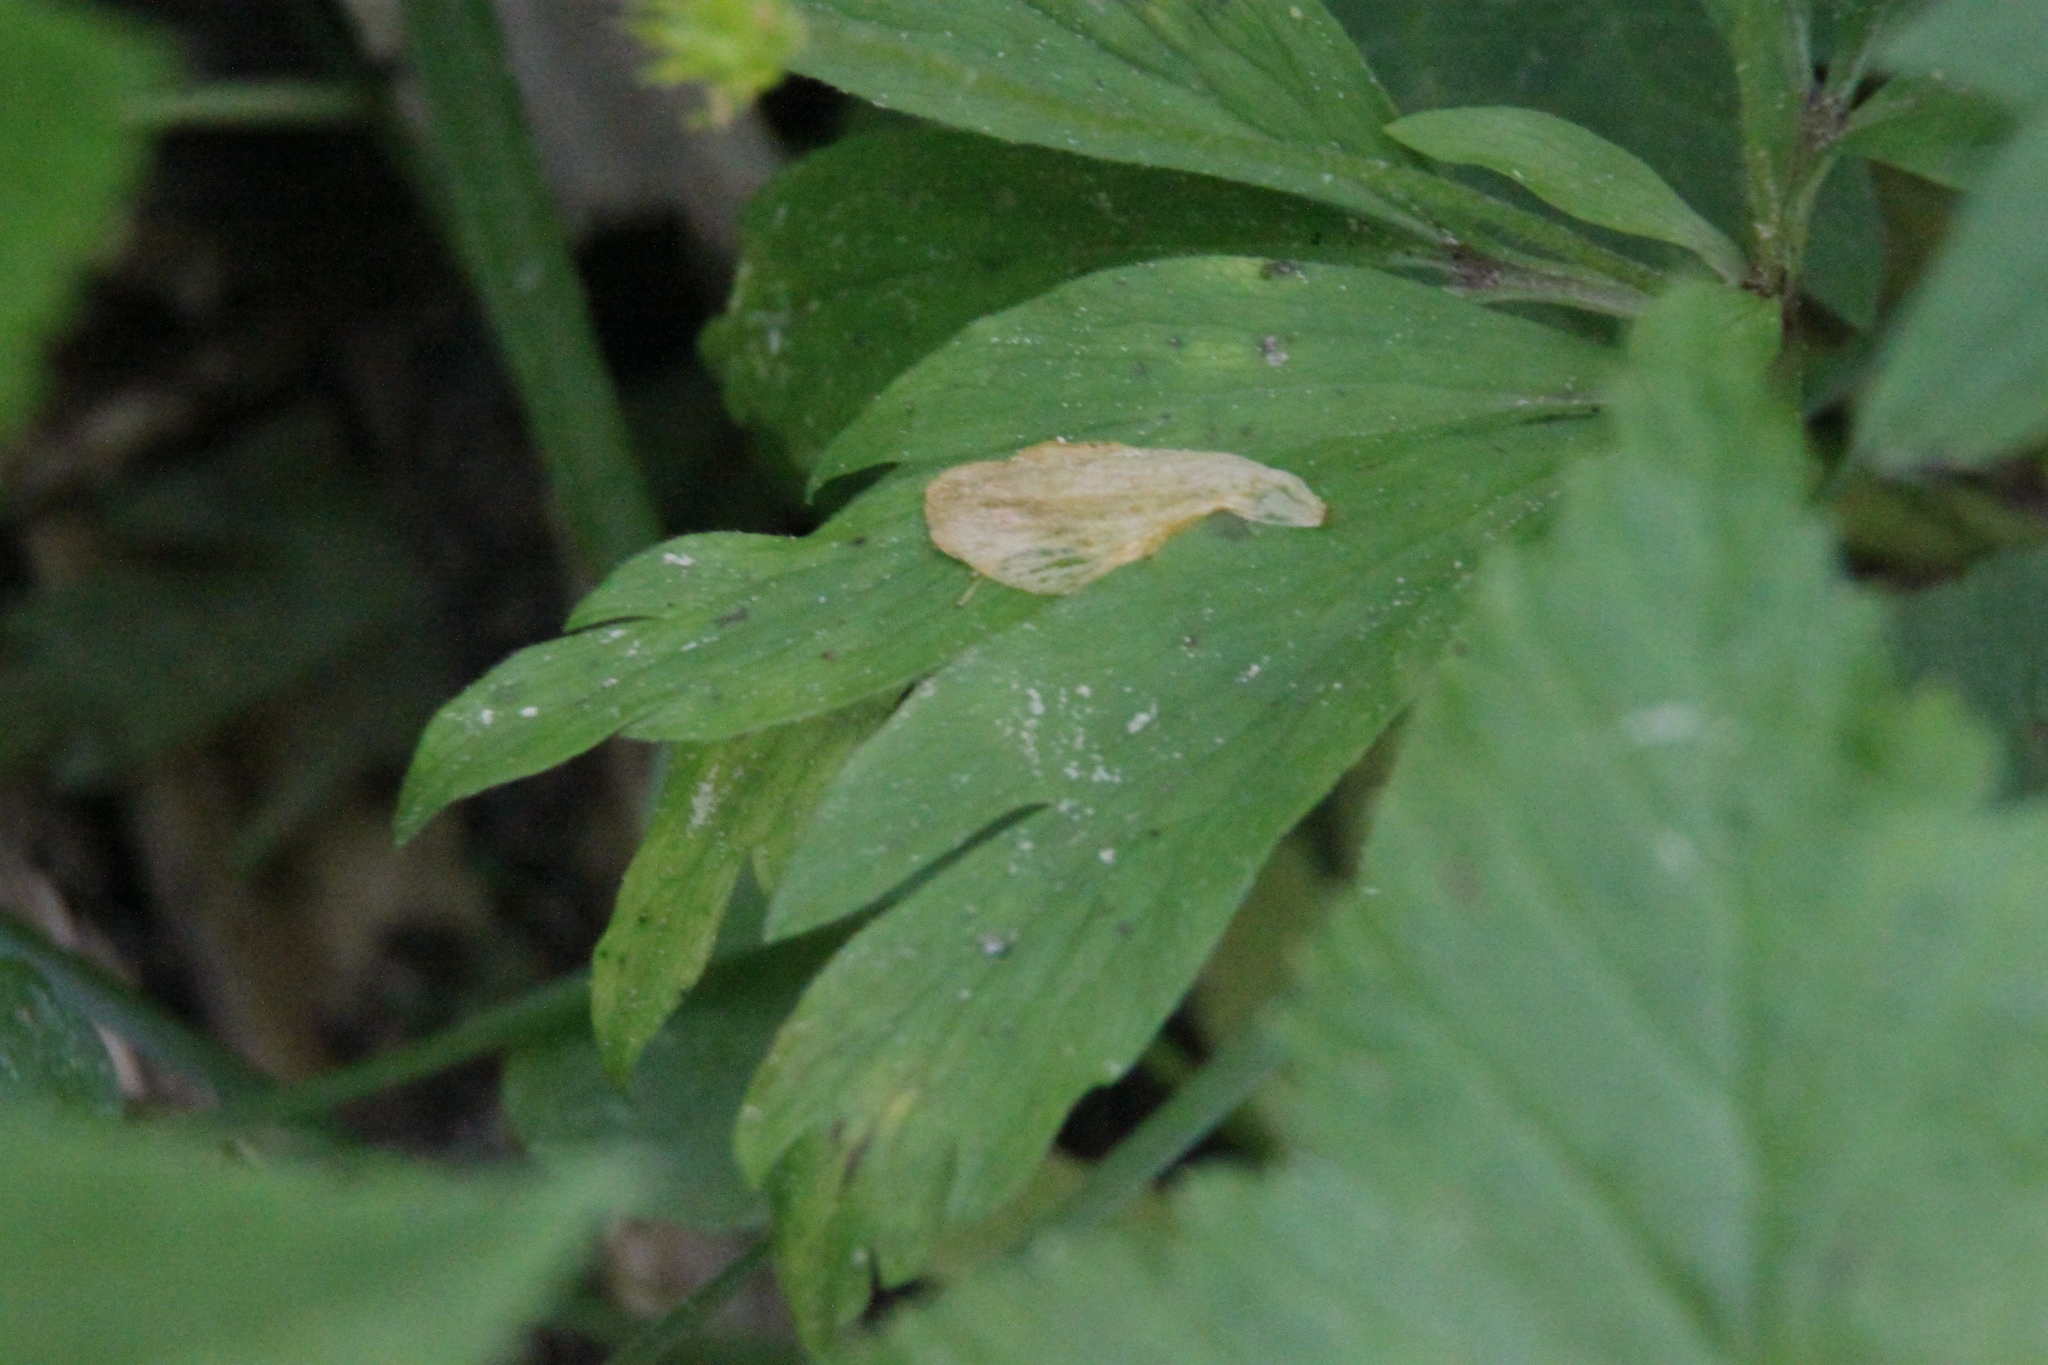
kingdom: Plantae
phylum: Tracheophyta
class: Magnoliopsida
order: Ranunculales
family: Ranunculaceae
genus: Anemone
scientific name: Anemone ranunculoides
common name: Yellow anemone
